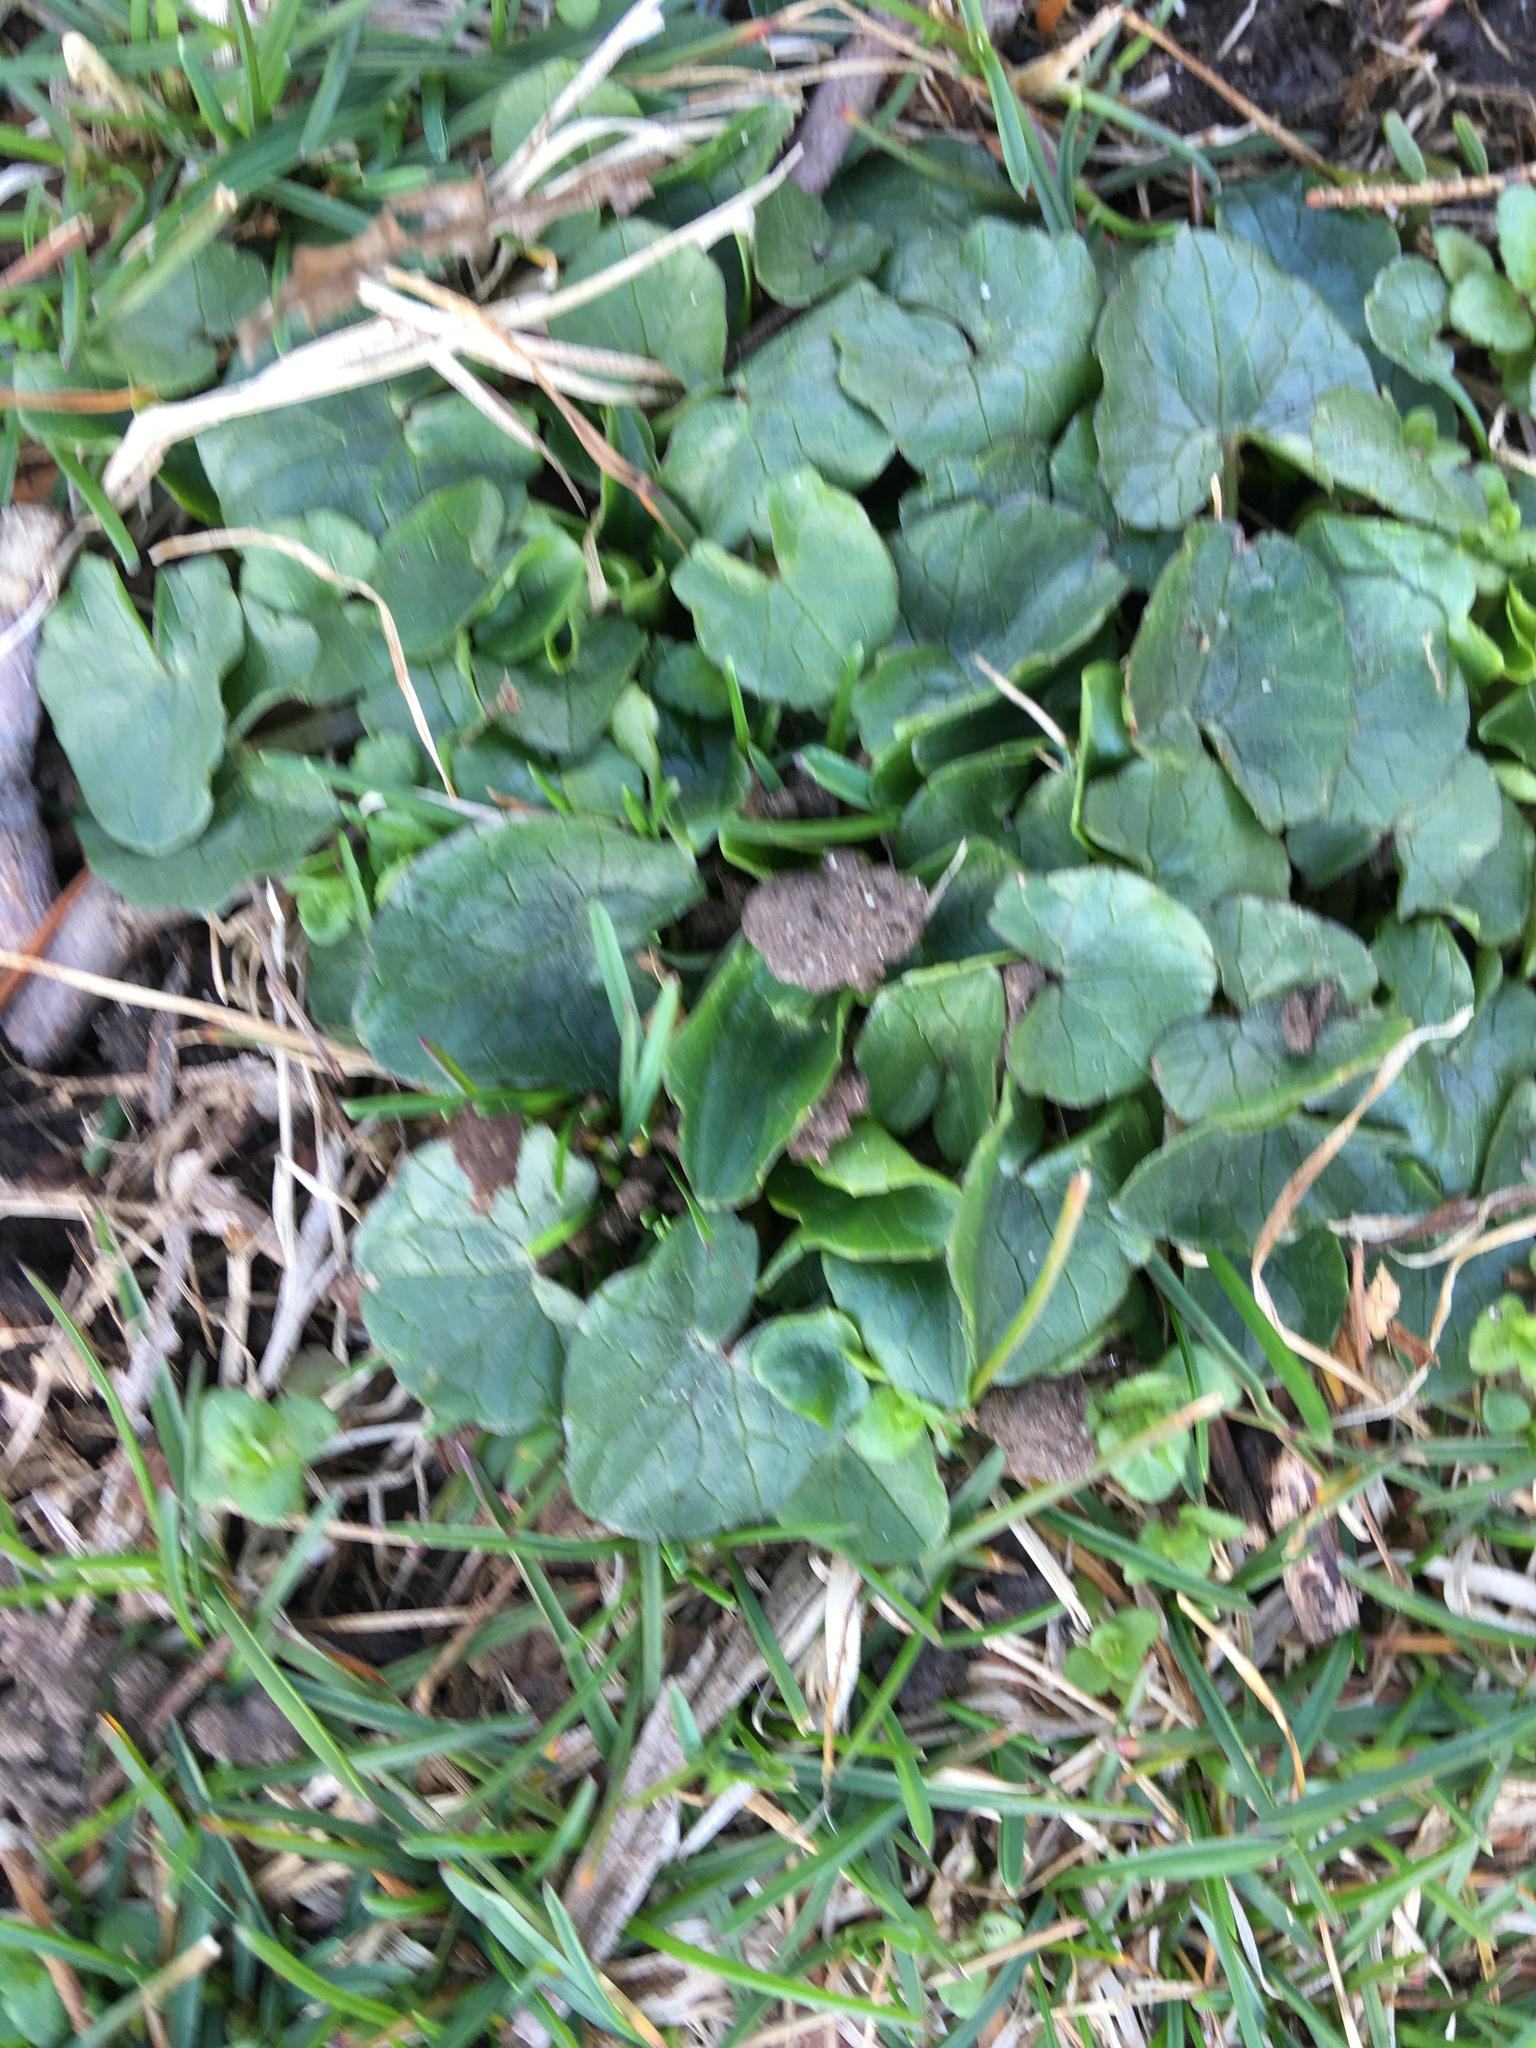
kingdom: Plantae
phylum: Tracheophyta
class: Magnoliopsida
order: Ranunculales
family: Ranunculaceae
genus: Ficaria
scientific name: Ficaria verna
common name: Lesser celandine
